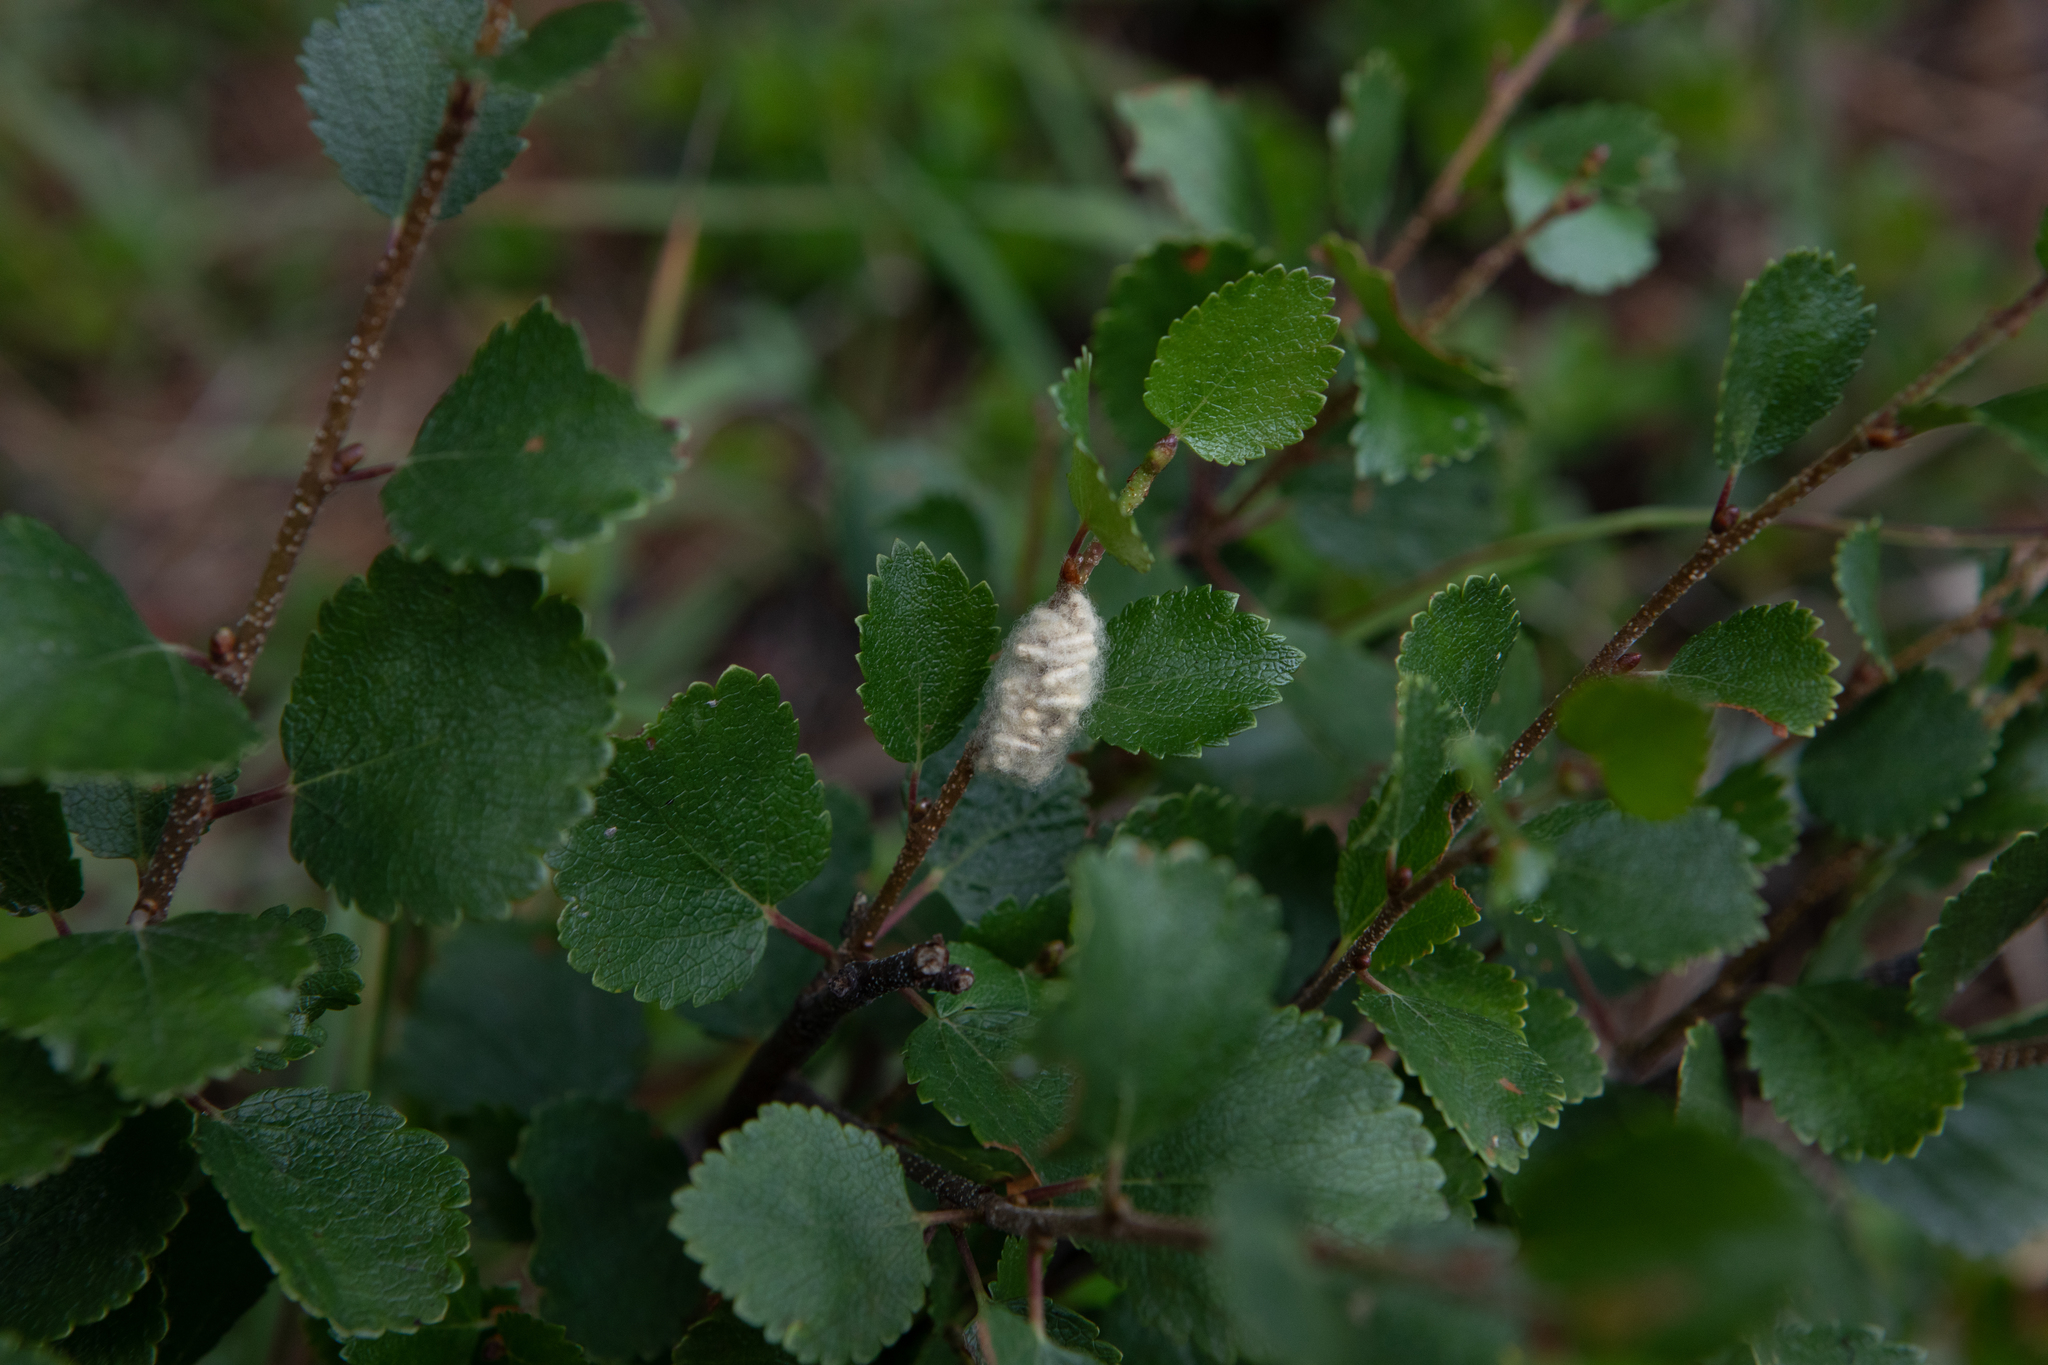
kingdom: Plantae
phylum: Tracheophyta
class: Magnoliopsida
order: Fagales
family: Betulaceae
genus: Betula
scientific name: Betula nana
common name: Arctic dwarf birch
